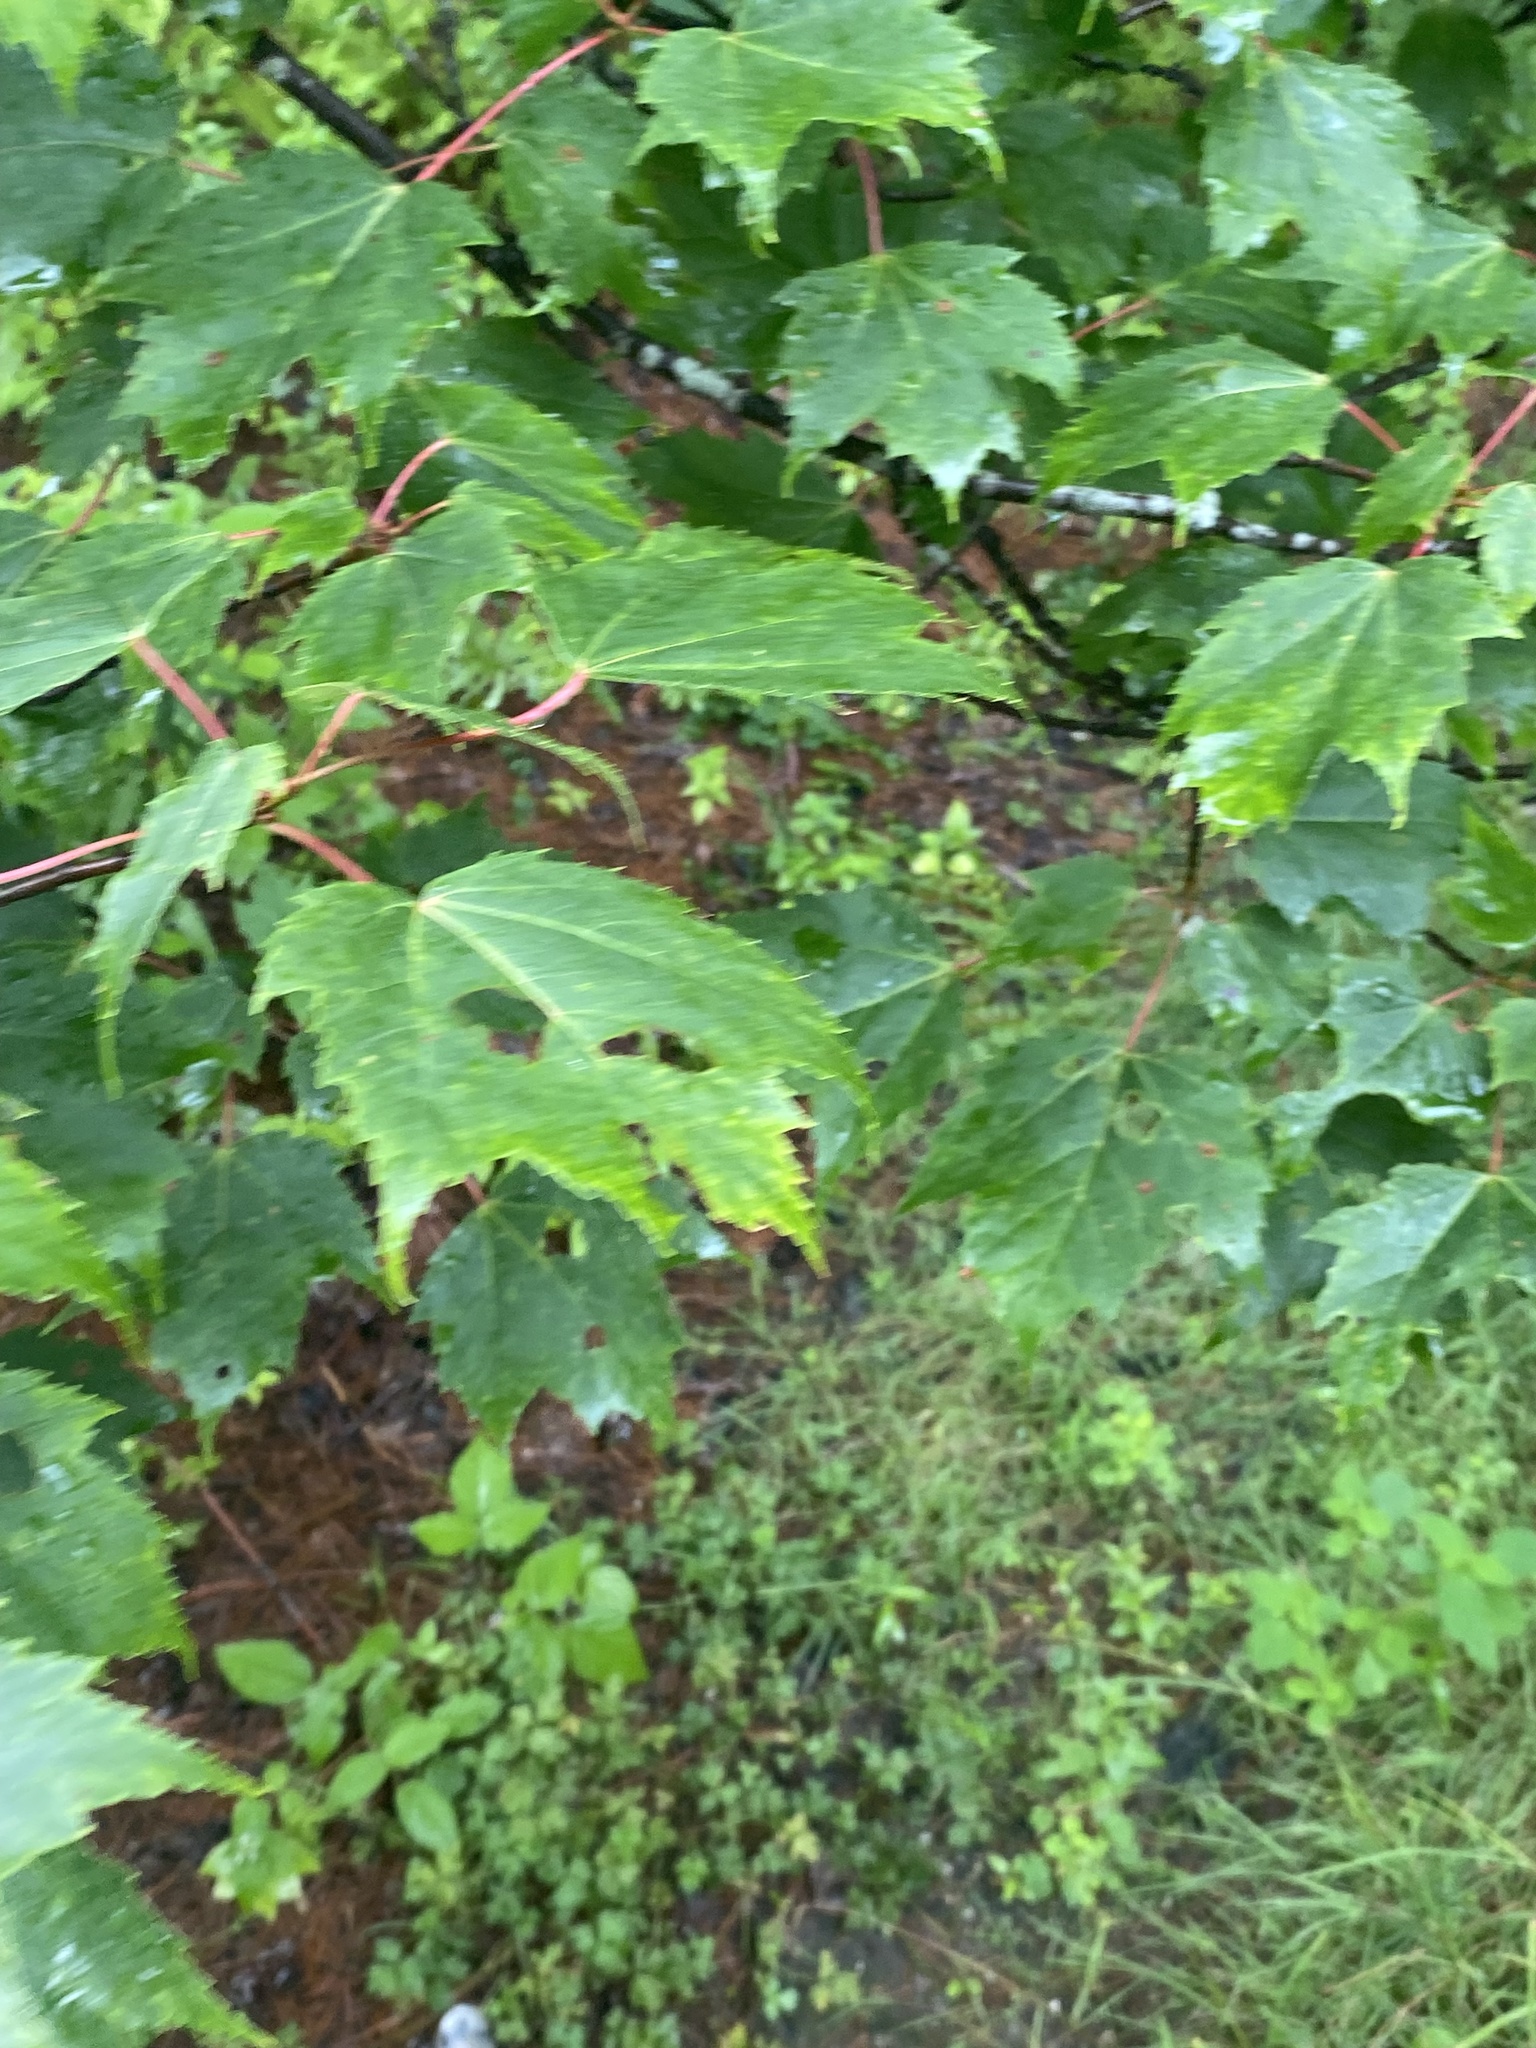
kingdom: Plantae
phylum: Tracheophyta
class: Magnoliopsida
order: Sapindales
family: Sapindaceae
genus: Acer
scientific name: Acer rubrum
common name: Red maple
